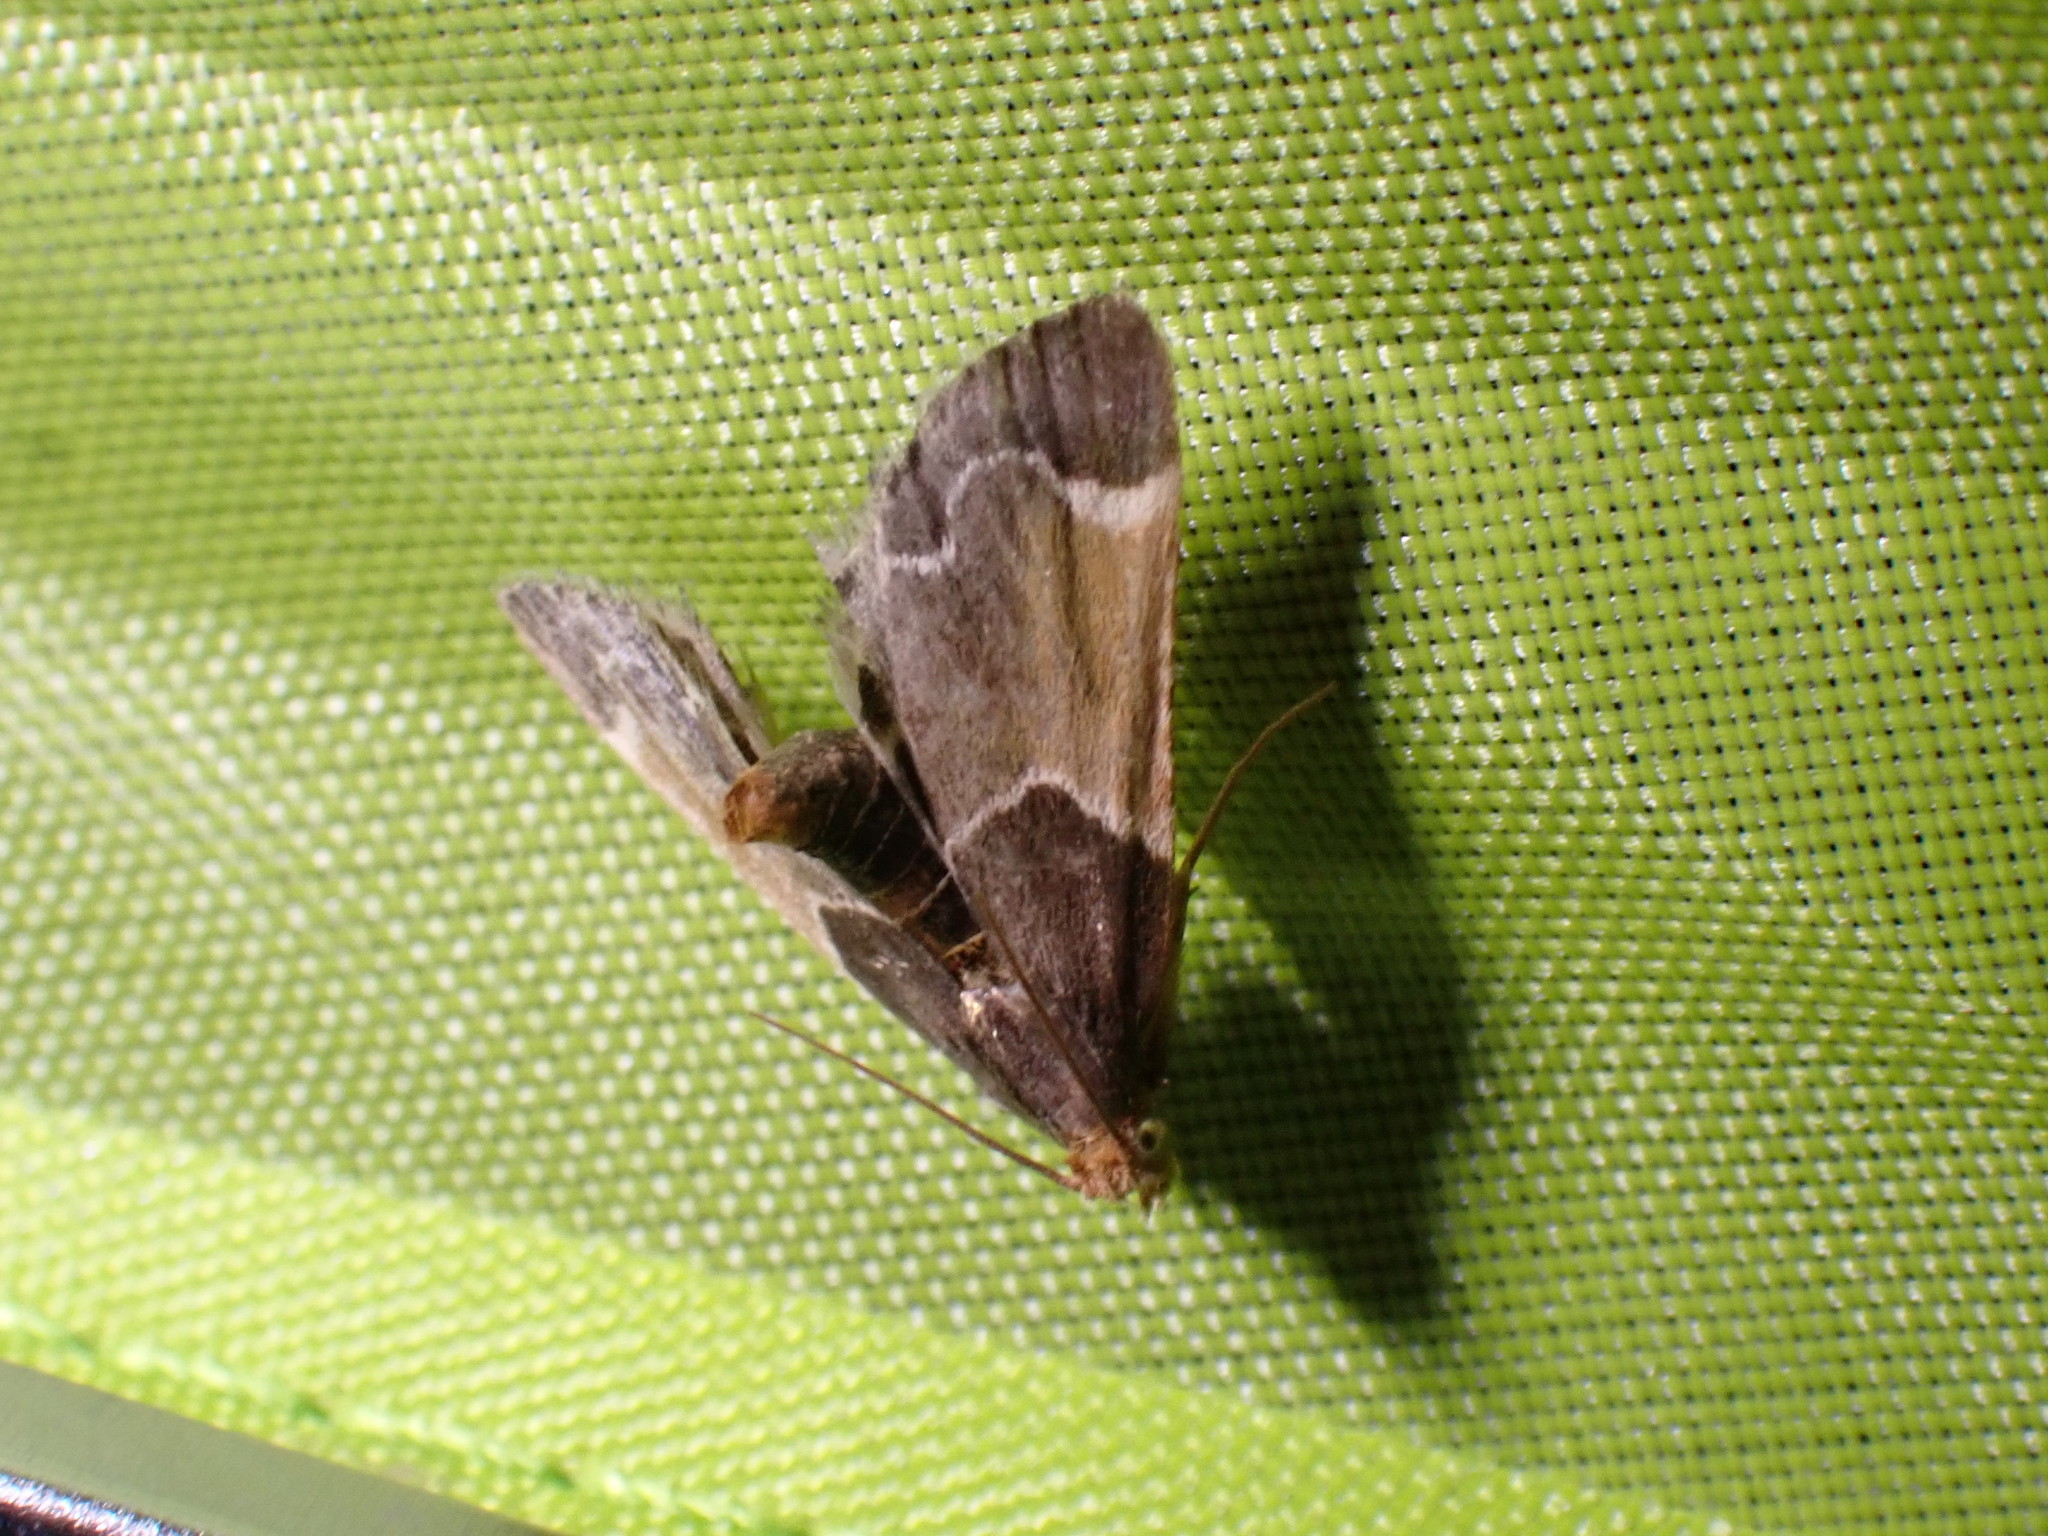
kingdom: Animalia
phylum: Arthropoda
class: Insecta
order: Lepidoptera
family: Pyralidae
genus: Pyralis
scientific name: Pyralis farinalis
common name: Meal moth
